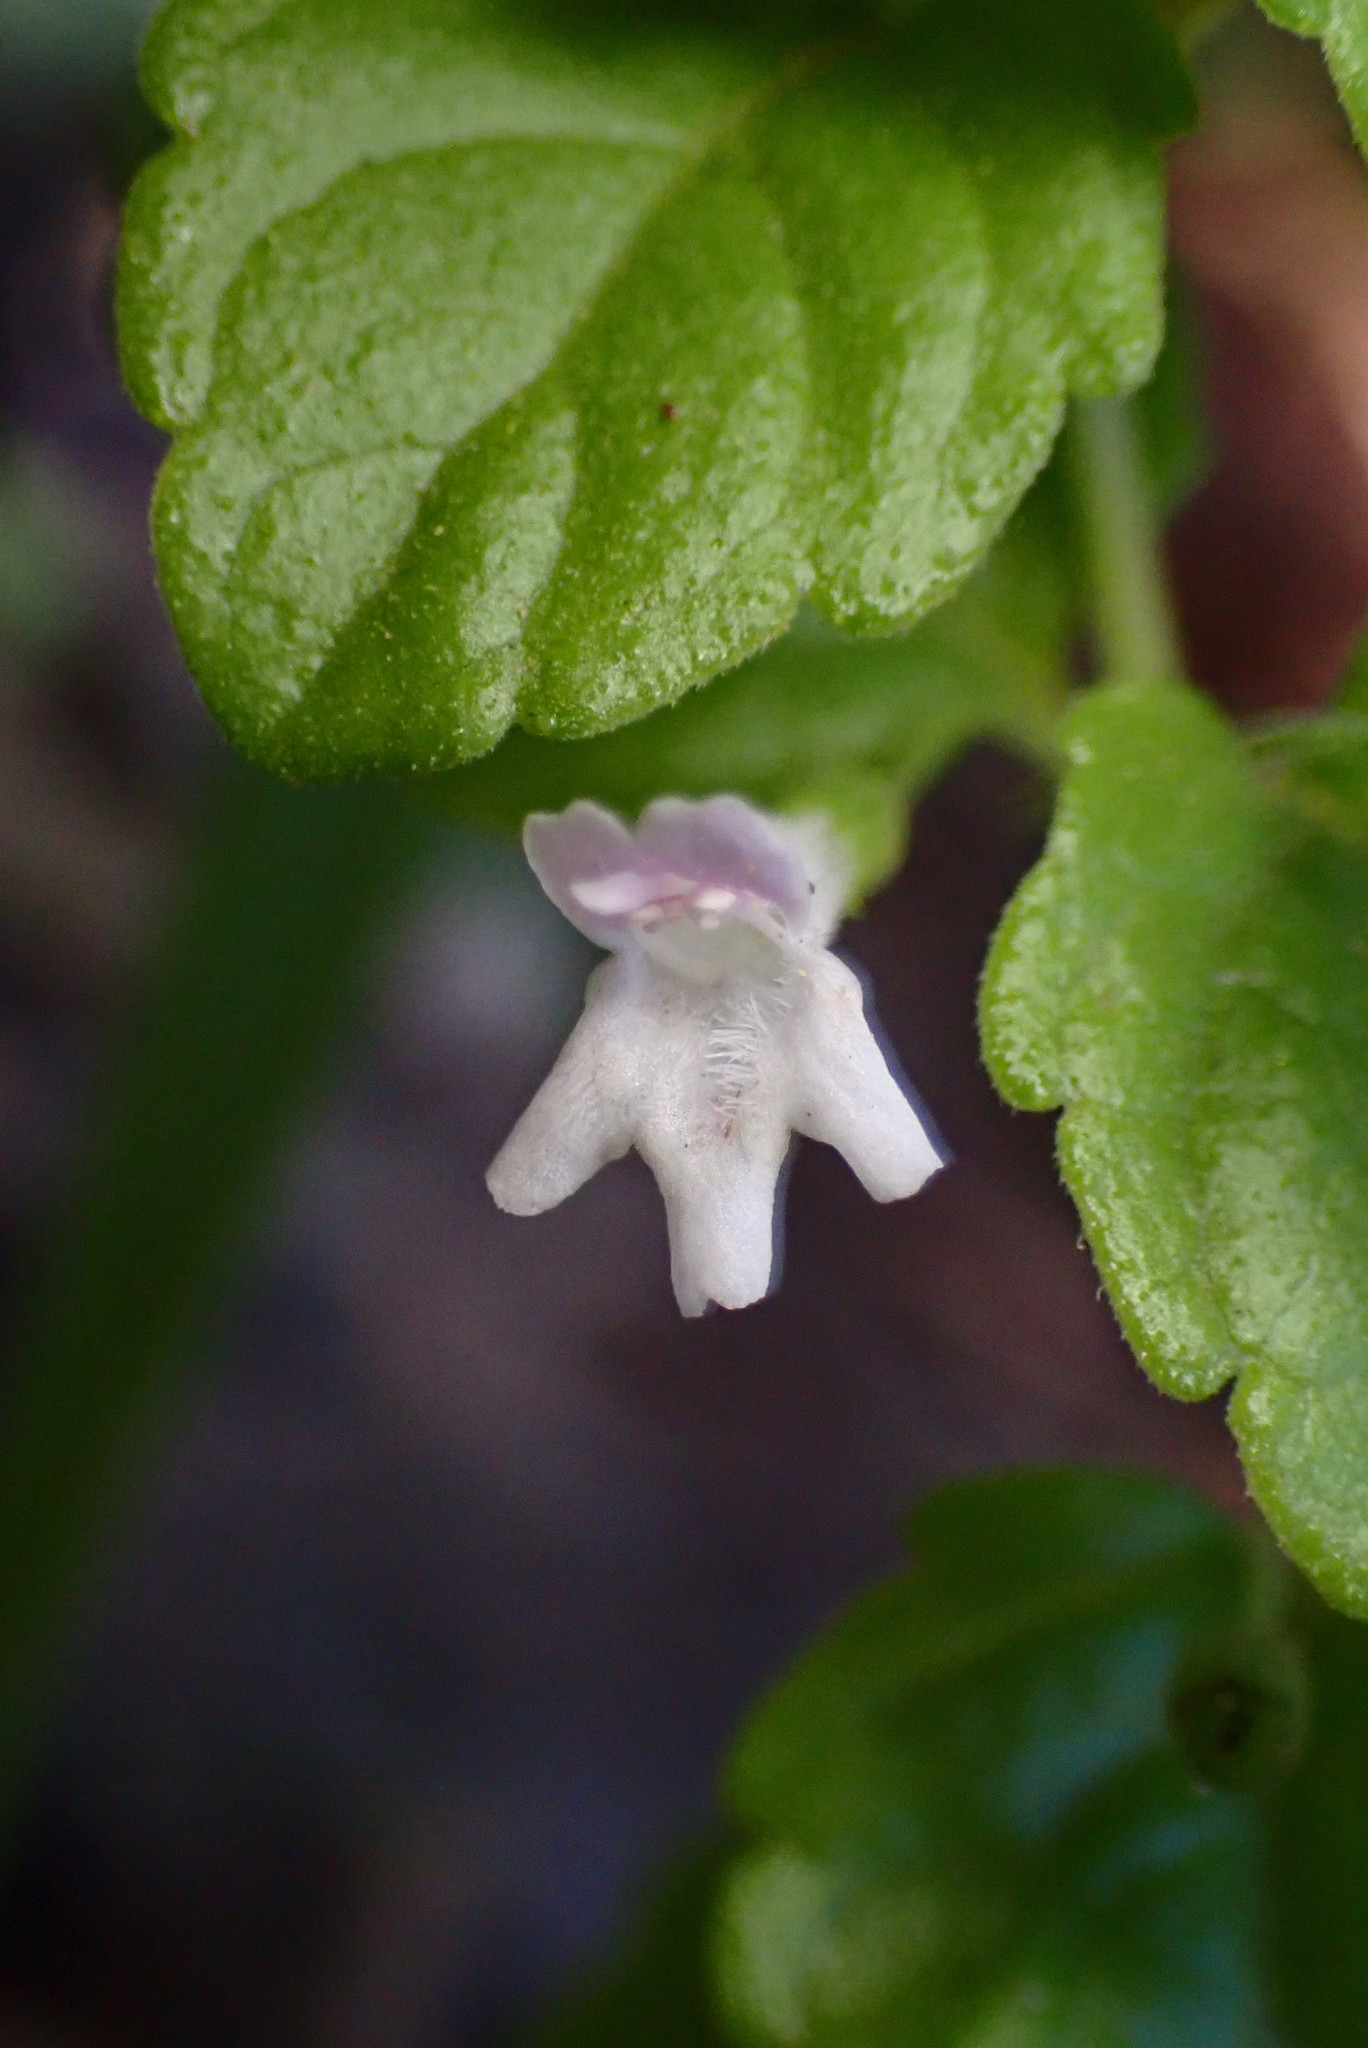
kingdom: Plantae
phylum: Tracheophyta
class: Magnoliopsida
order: Lamiales
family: Lamiaceae
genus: Micromeria
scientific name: Micromeria douglasii
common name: Yerba buena
